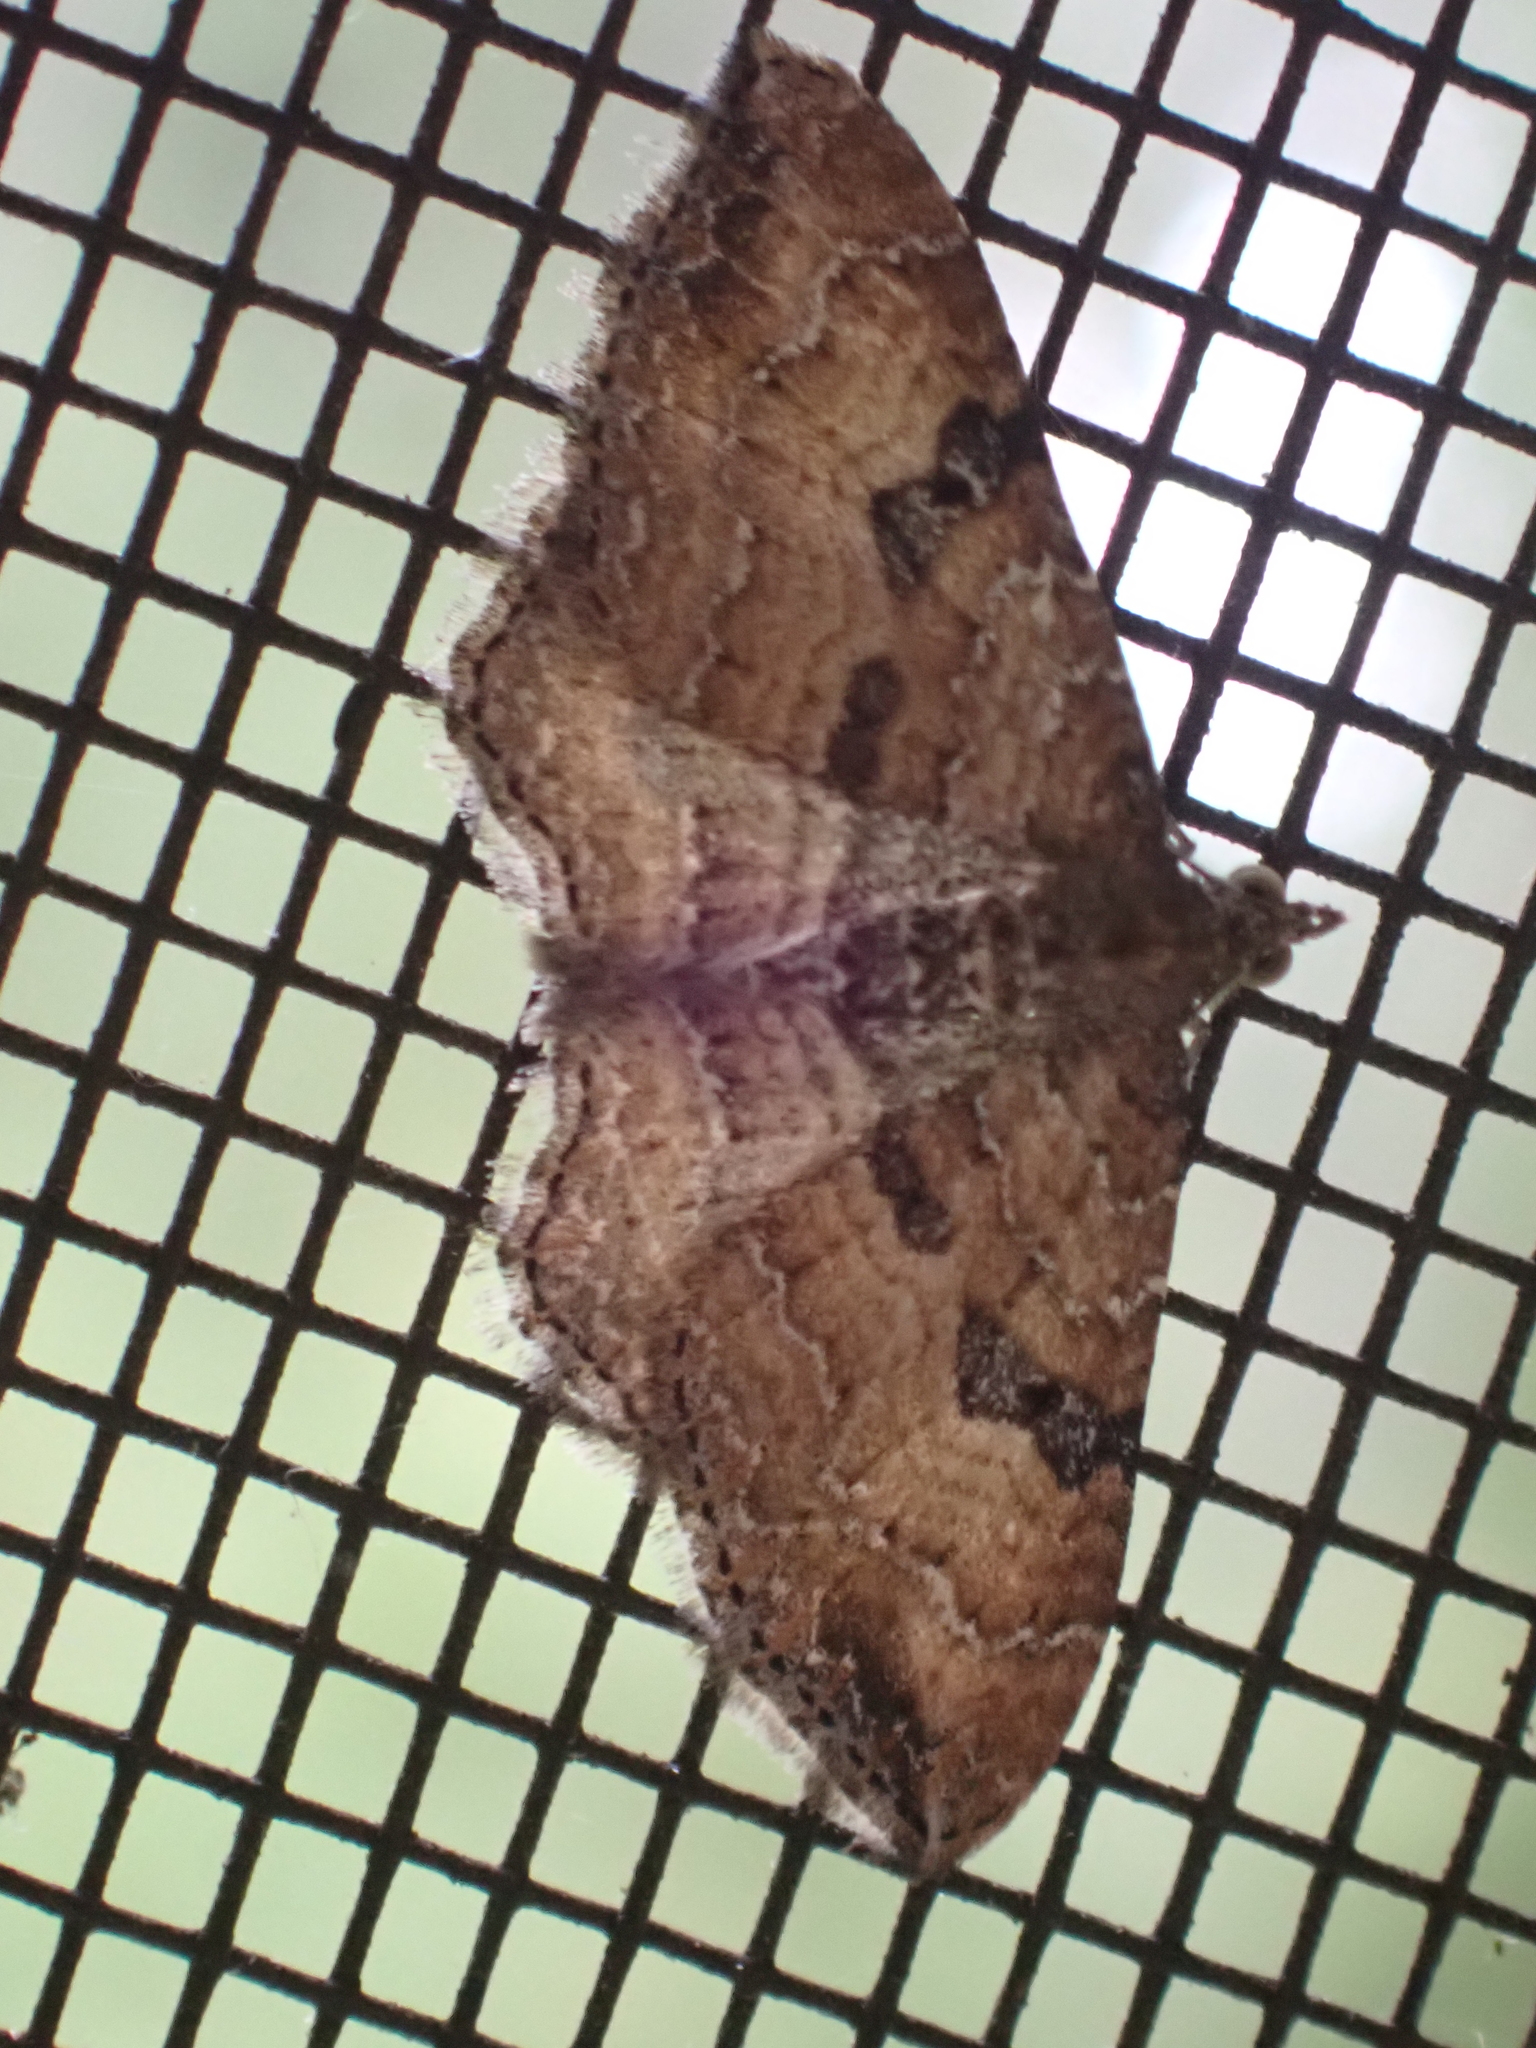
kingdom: Animalia
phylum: Arthropoda
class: Insecta
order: Lepidoptera
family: Geometridae
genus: Orthonama
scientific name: Orthonama obstipata
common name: The gem
